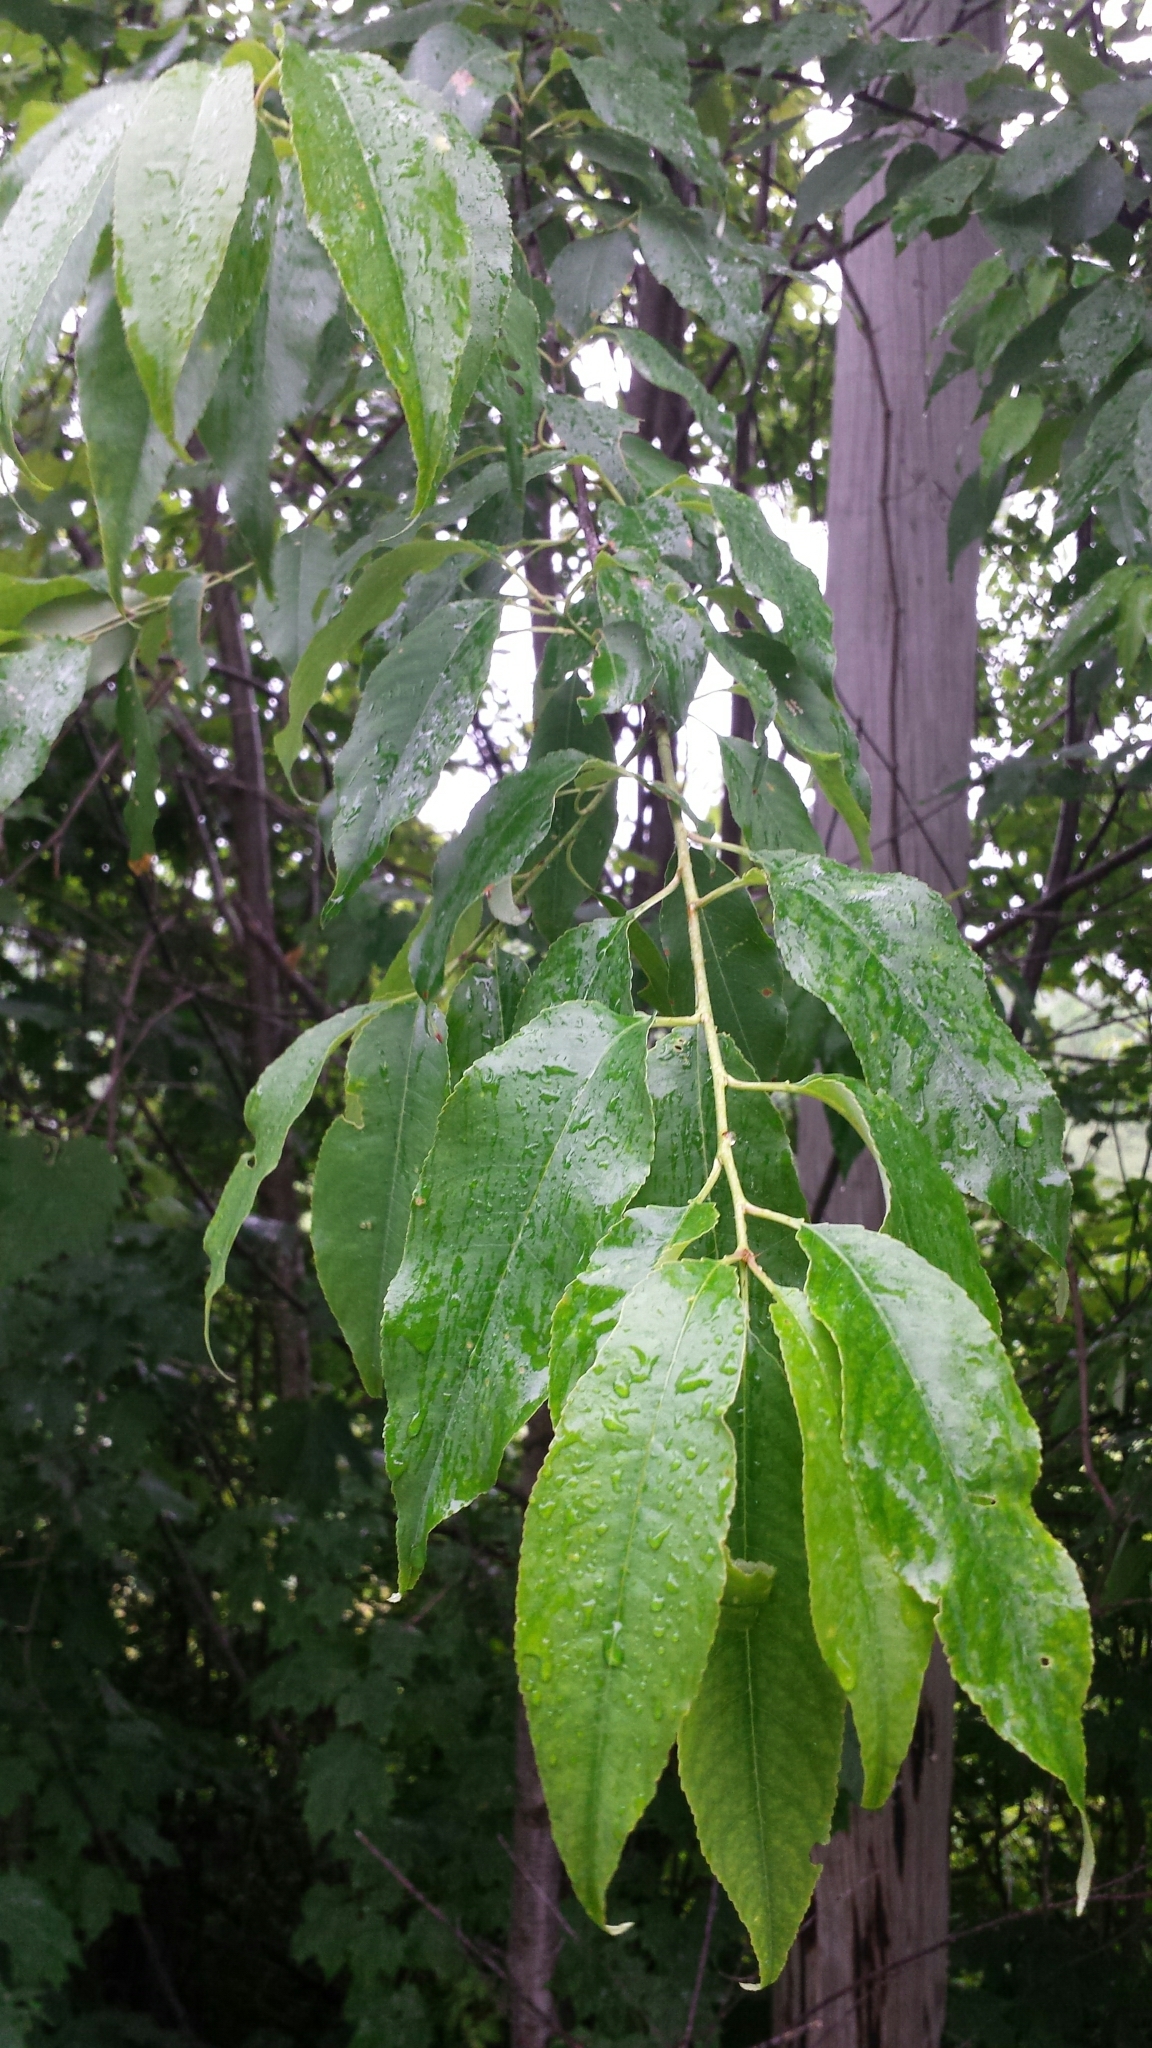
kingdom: Plantae
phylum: Tracheophyta
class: Magnoliopsida
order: Rosales
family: Rosaceae
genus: Prunus
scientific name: Prunus pensylvanica
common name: Pin cherry
